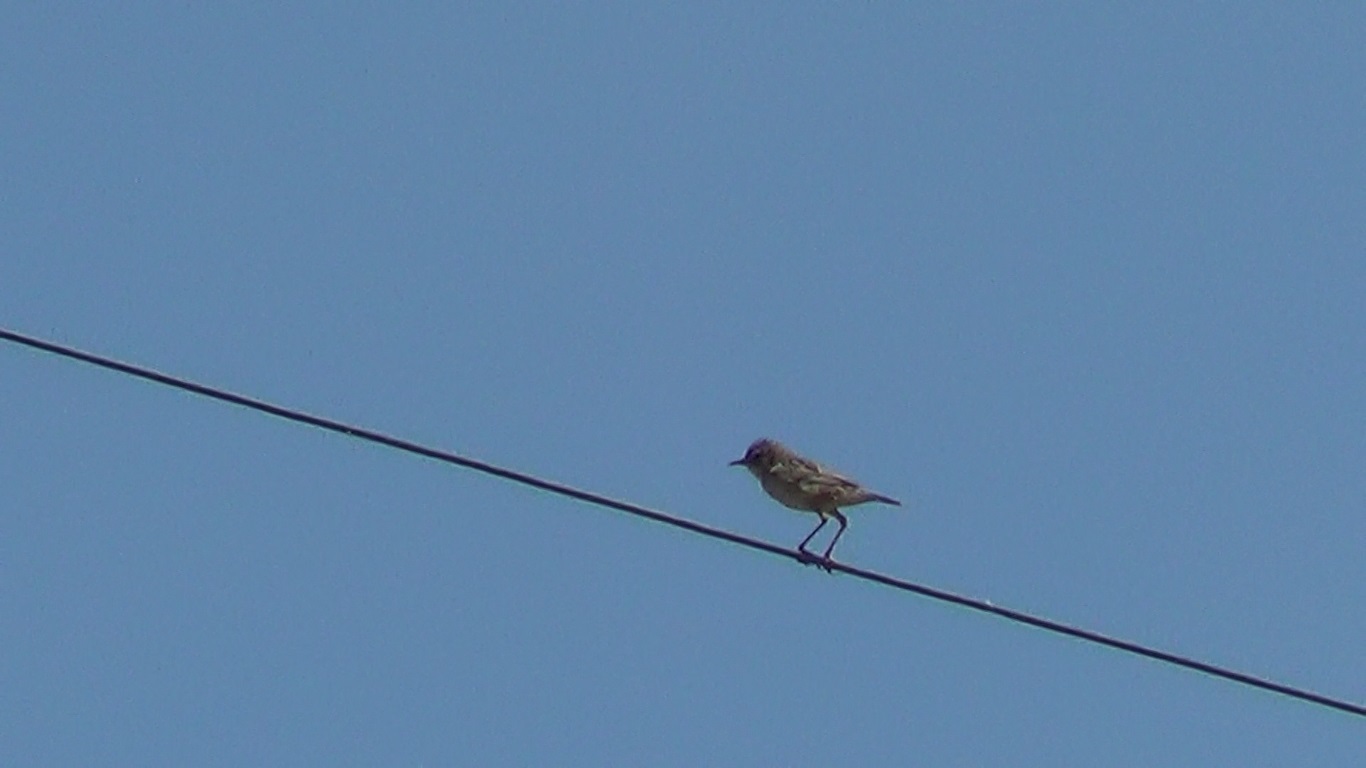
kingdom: Animalia
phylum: Chordata
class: Aves
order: Passeriformes
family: Cisticolidae
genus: Cisticola
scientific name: Cisticola juncidis
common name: Zitting cisticola
